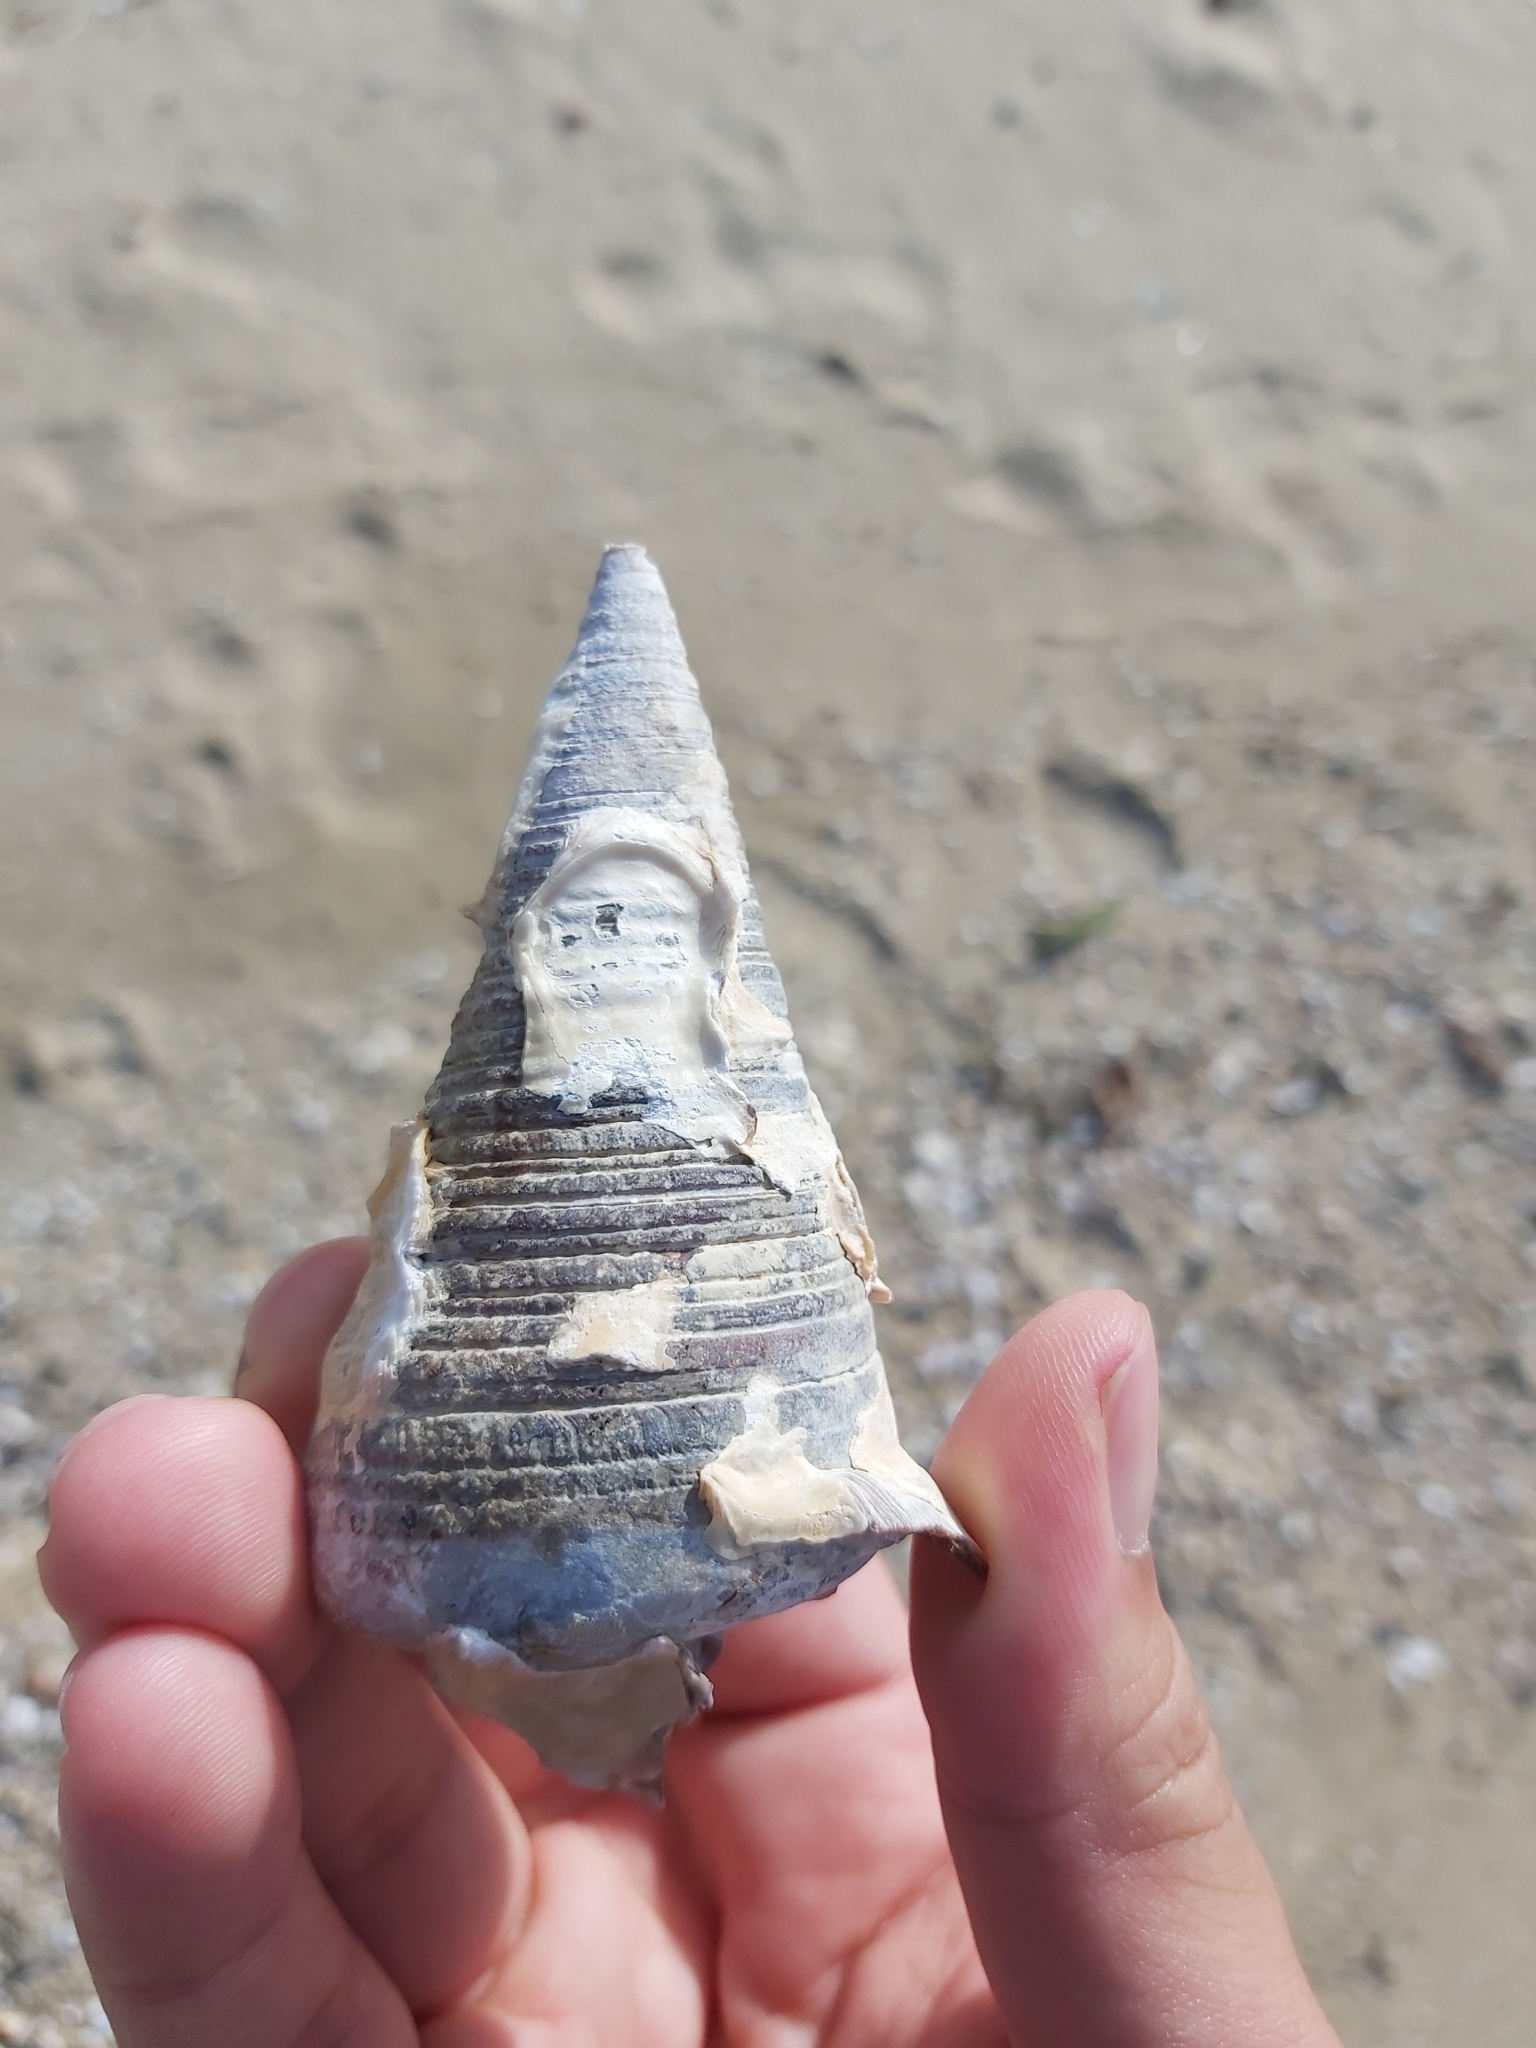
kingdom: Animalia
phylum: Mollusca
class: Gastropoda
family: Potamididae
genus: Telescopium
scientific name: Telescopium telescopium
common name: Telescope creeper
